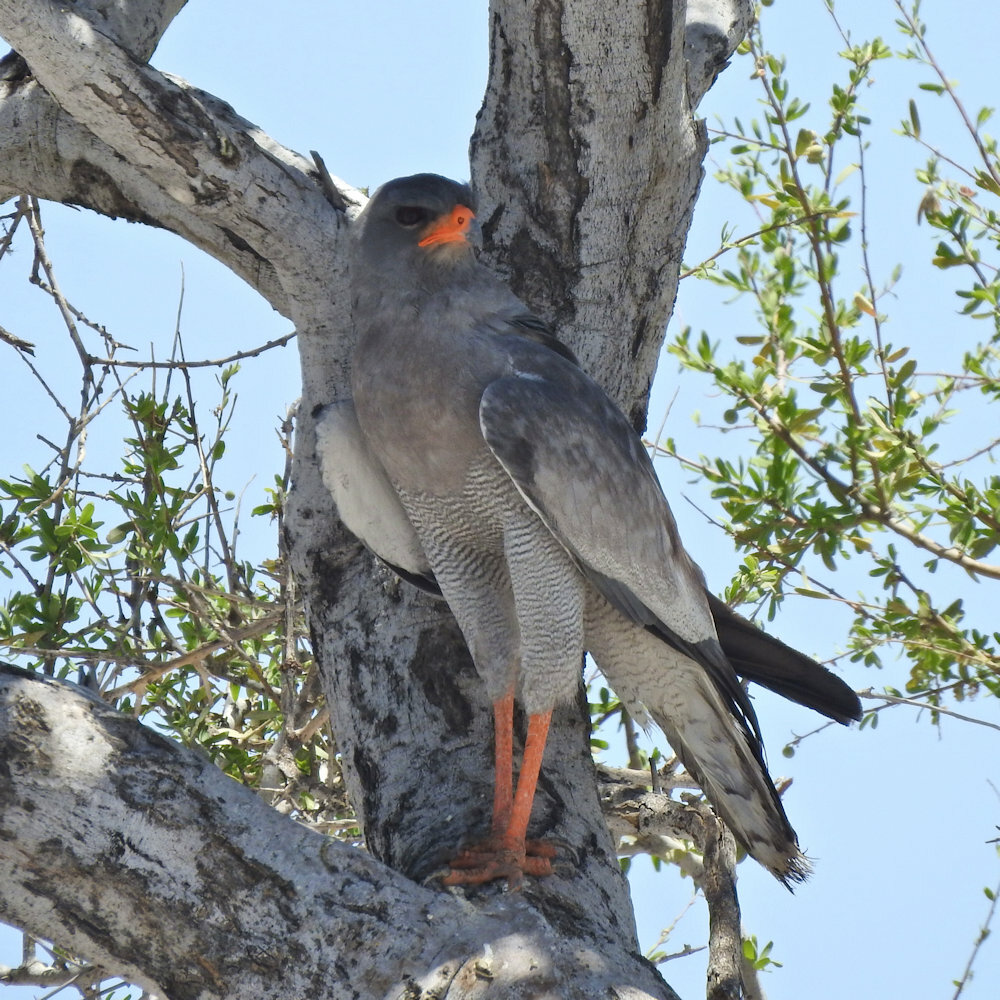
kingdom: Animalia
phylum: Chordata
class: Aves
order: Accipitriformes
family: Accipitridae
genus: Melierax
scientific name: Melierax canorus
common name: Pale chanting-goshawk
